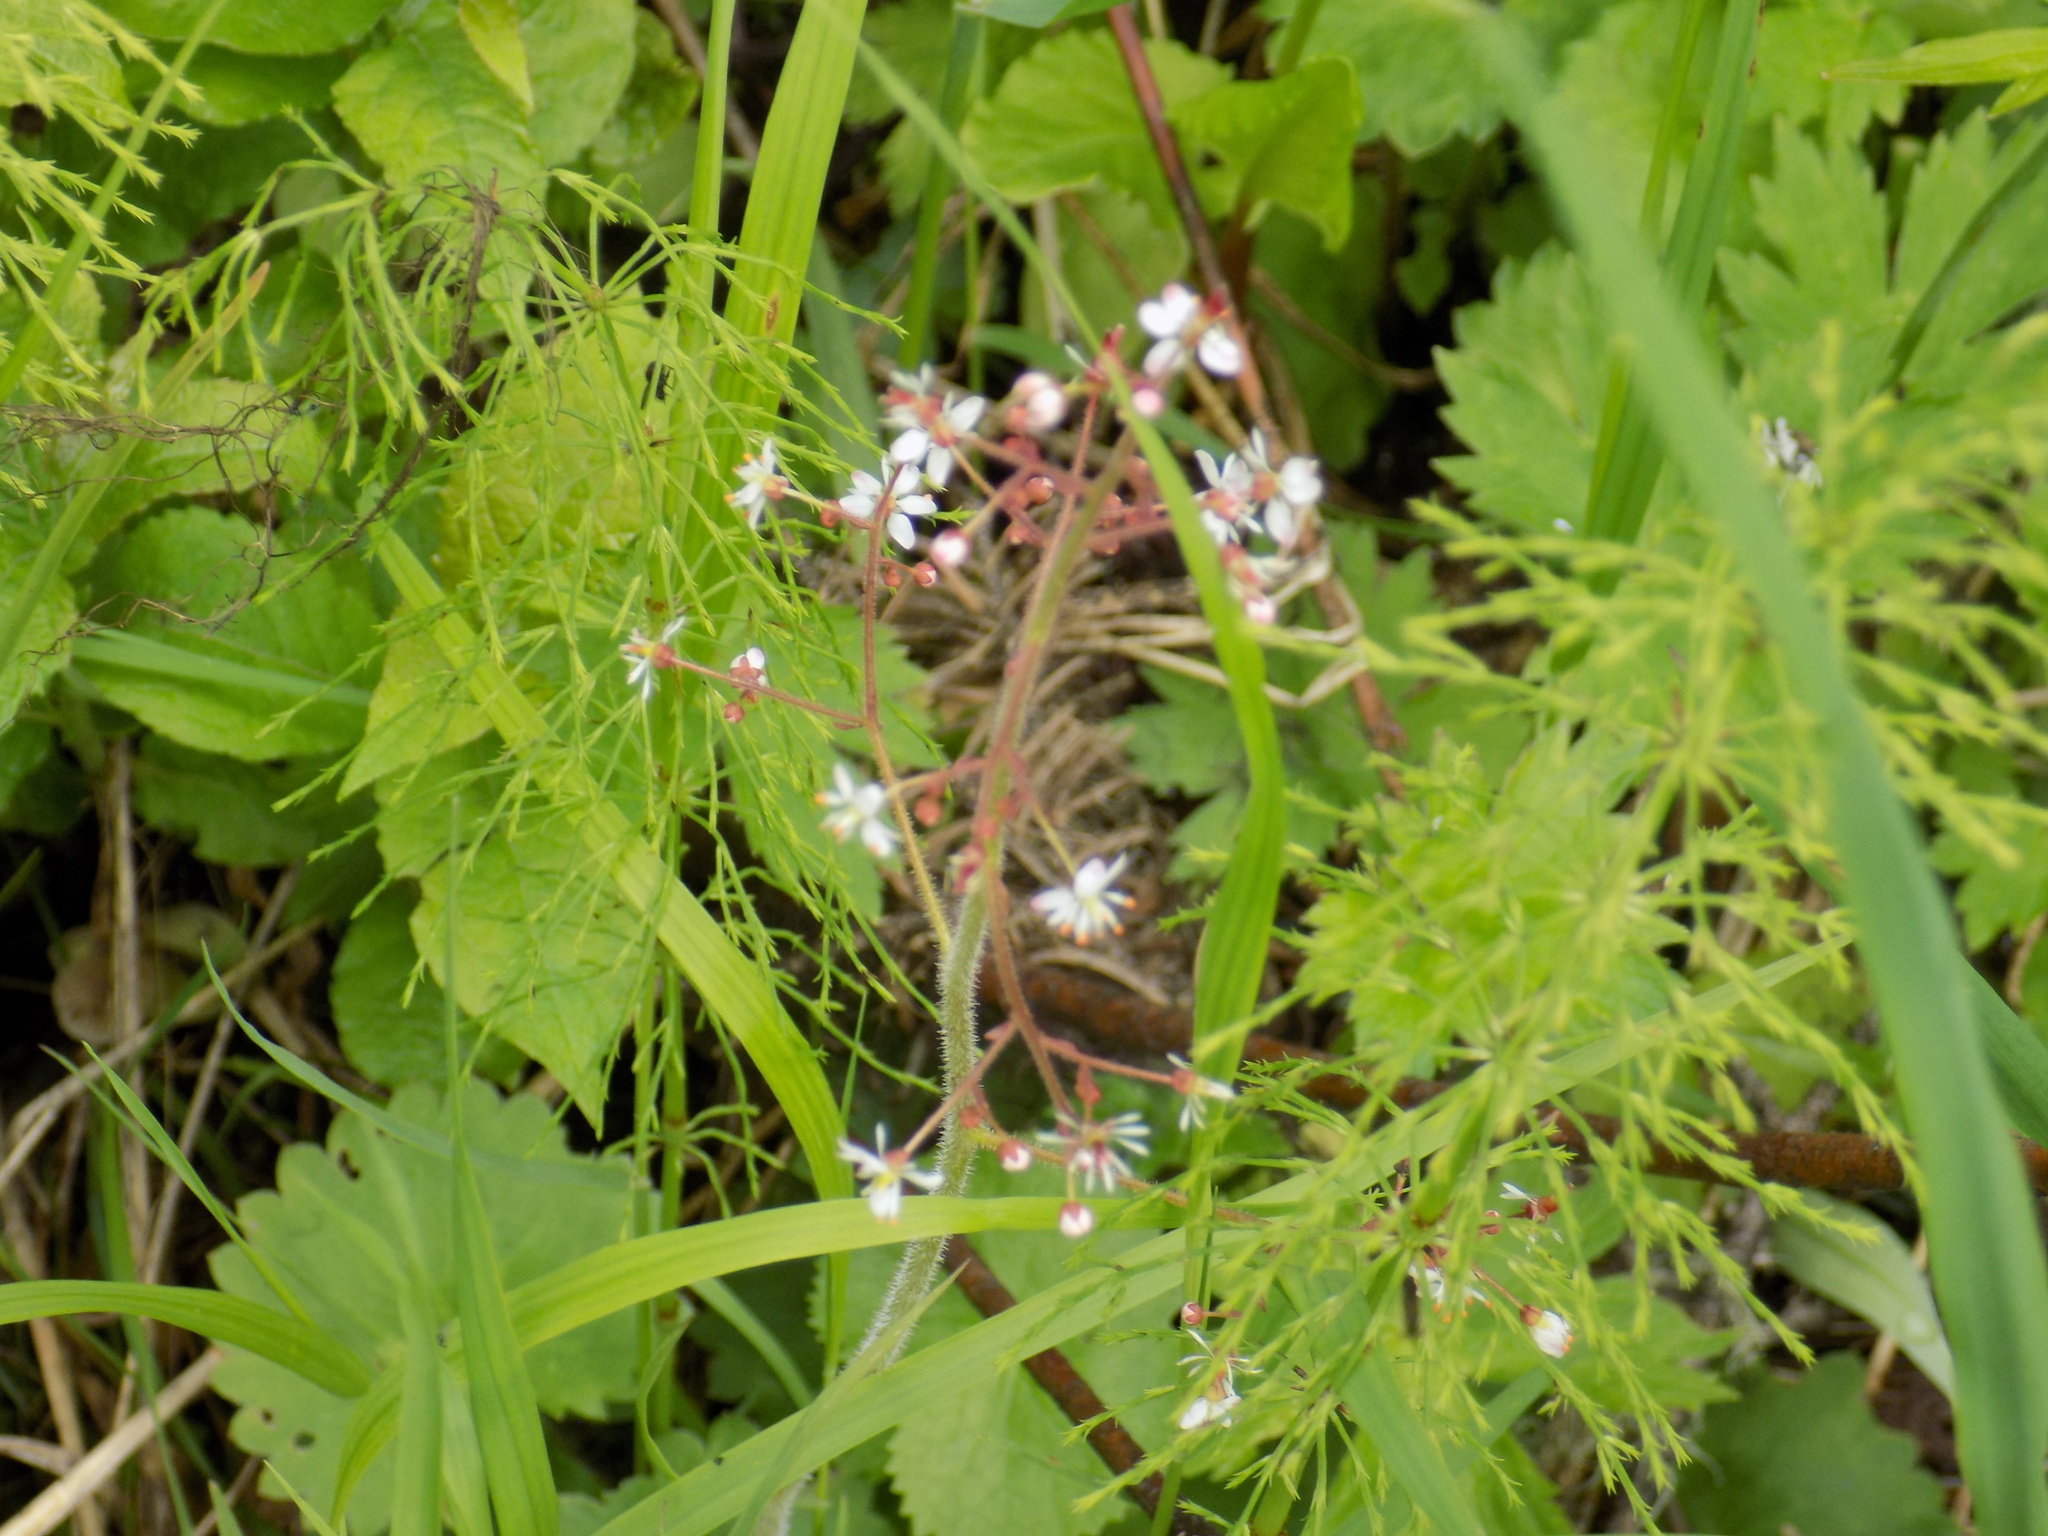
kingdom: Plantae
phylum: Tracheophyta
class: Magnoliopsida
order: Saxifragales
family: Saxifragaceae
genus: Micranthes
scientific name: Micranthes nelsoniana
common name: Nelson's saxifrage
